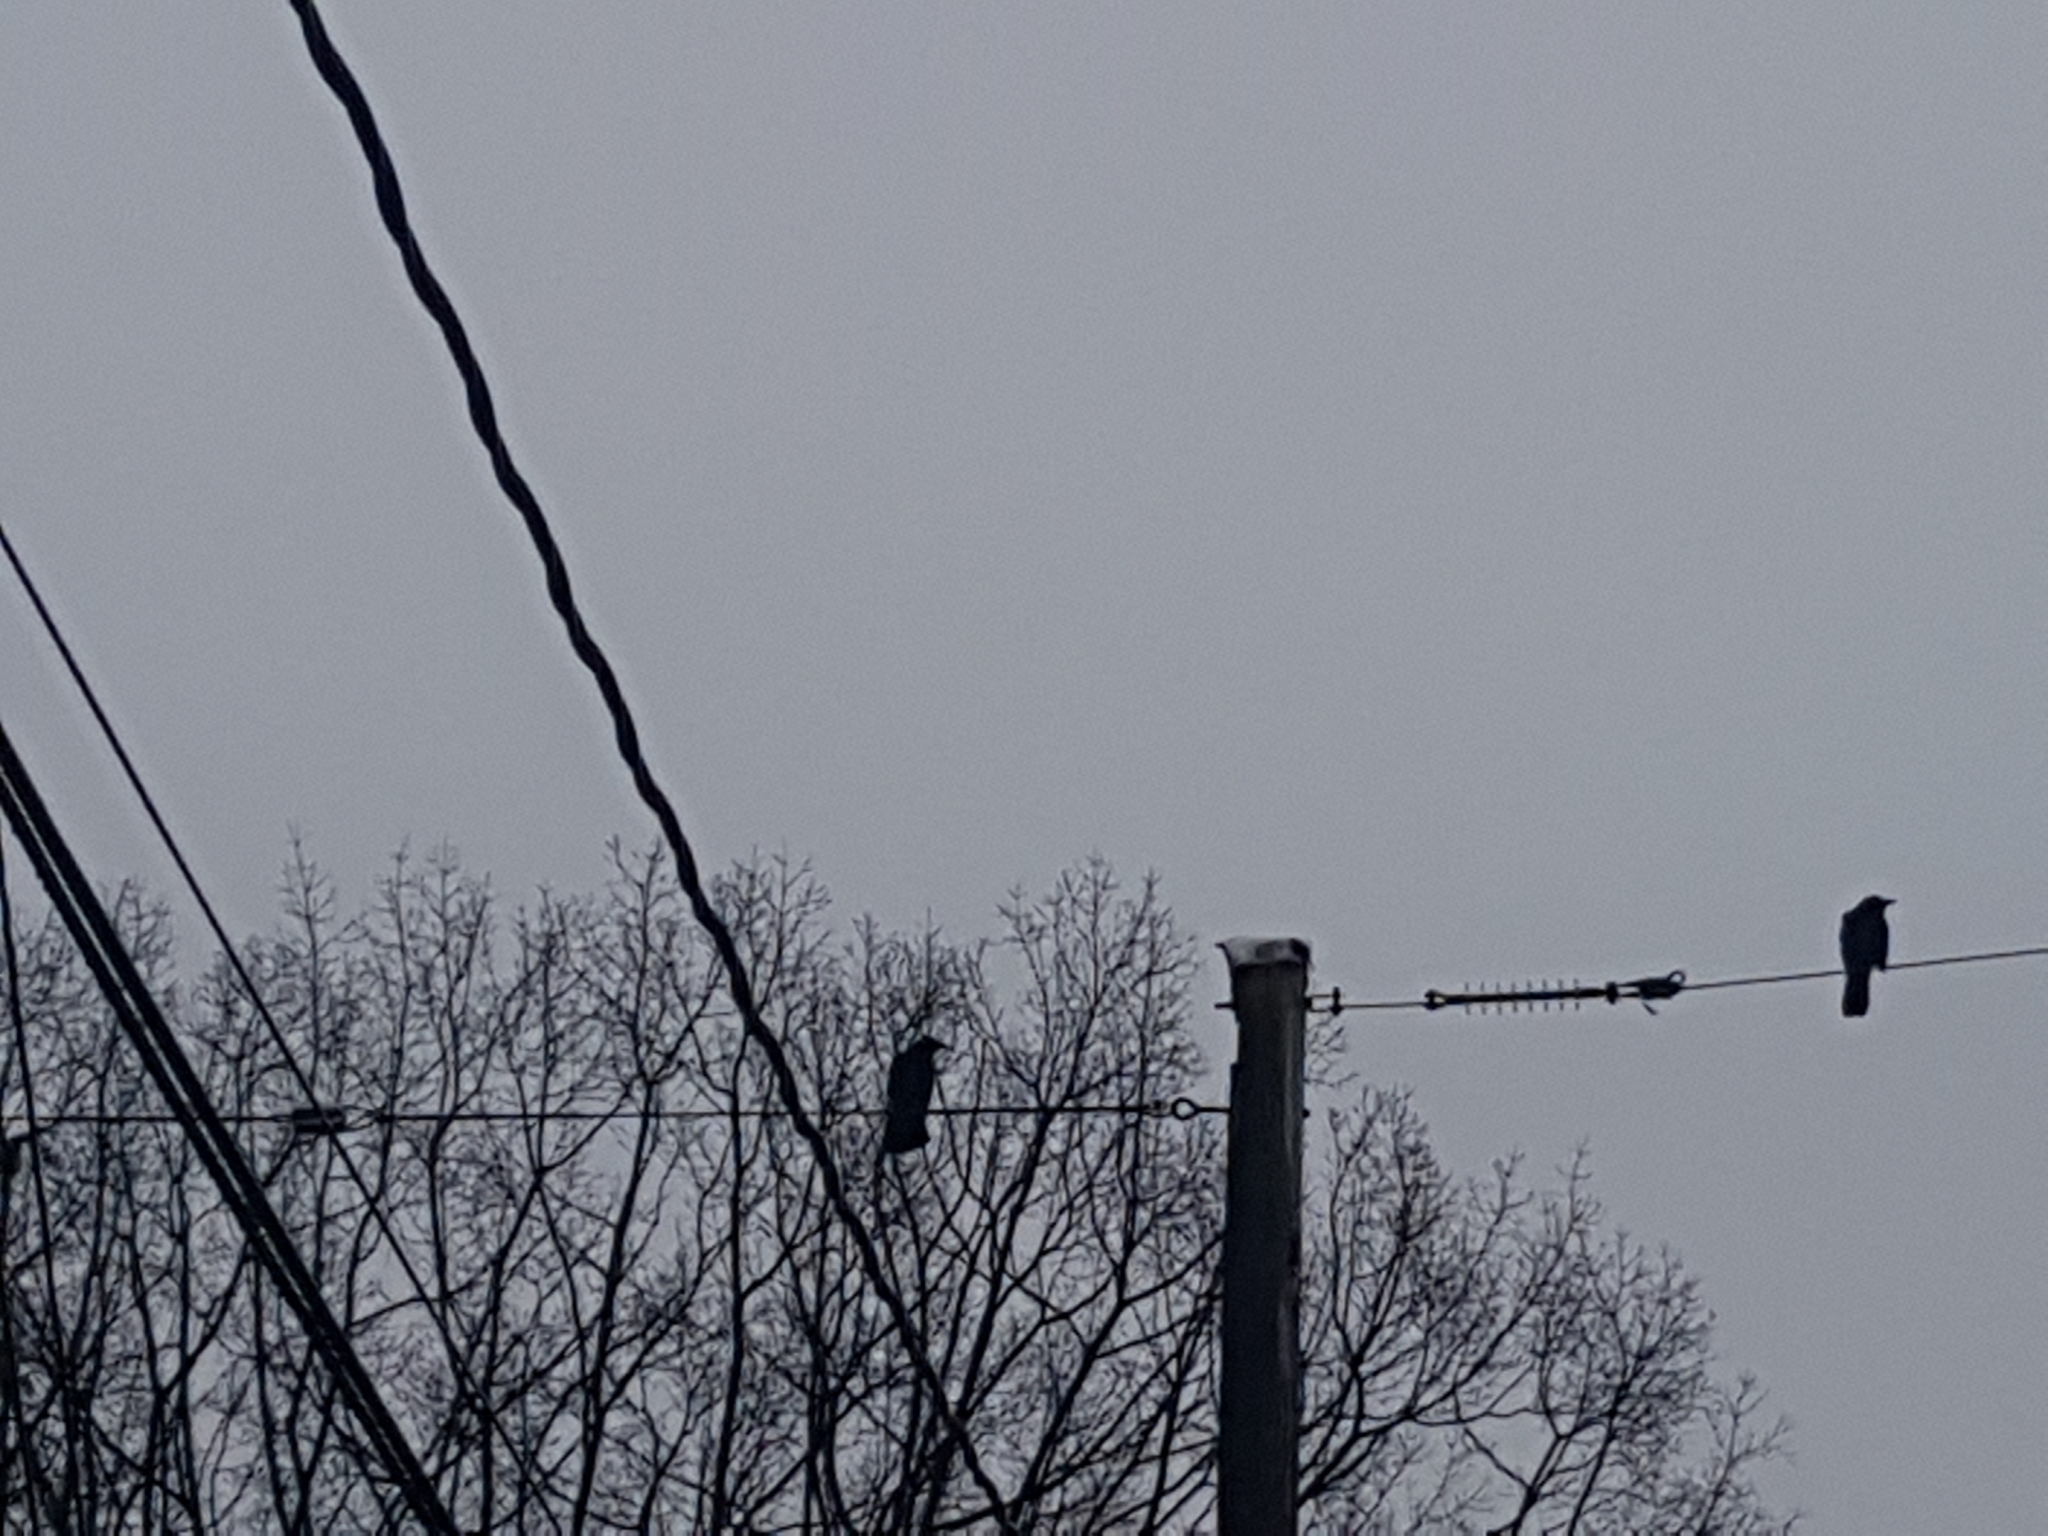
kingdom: Animalia
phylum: Chordata
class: Aves
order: Passeriformes
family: Corvidae
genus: Corvus
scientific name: Corvus brachyrhynchos
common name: American crow
